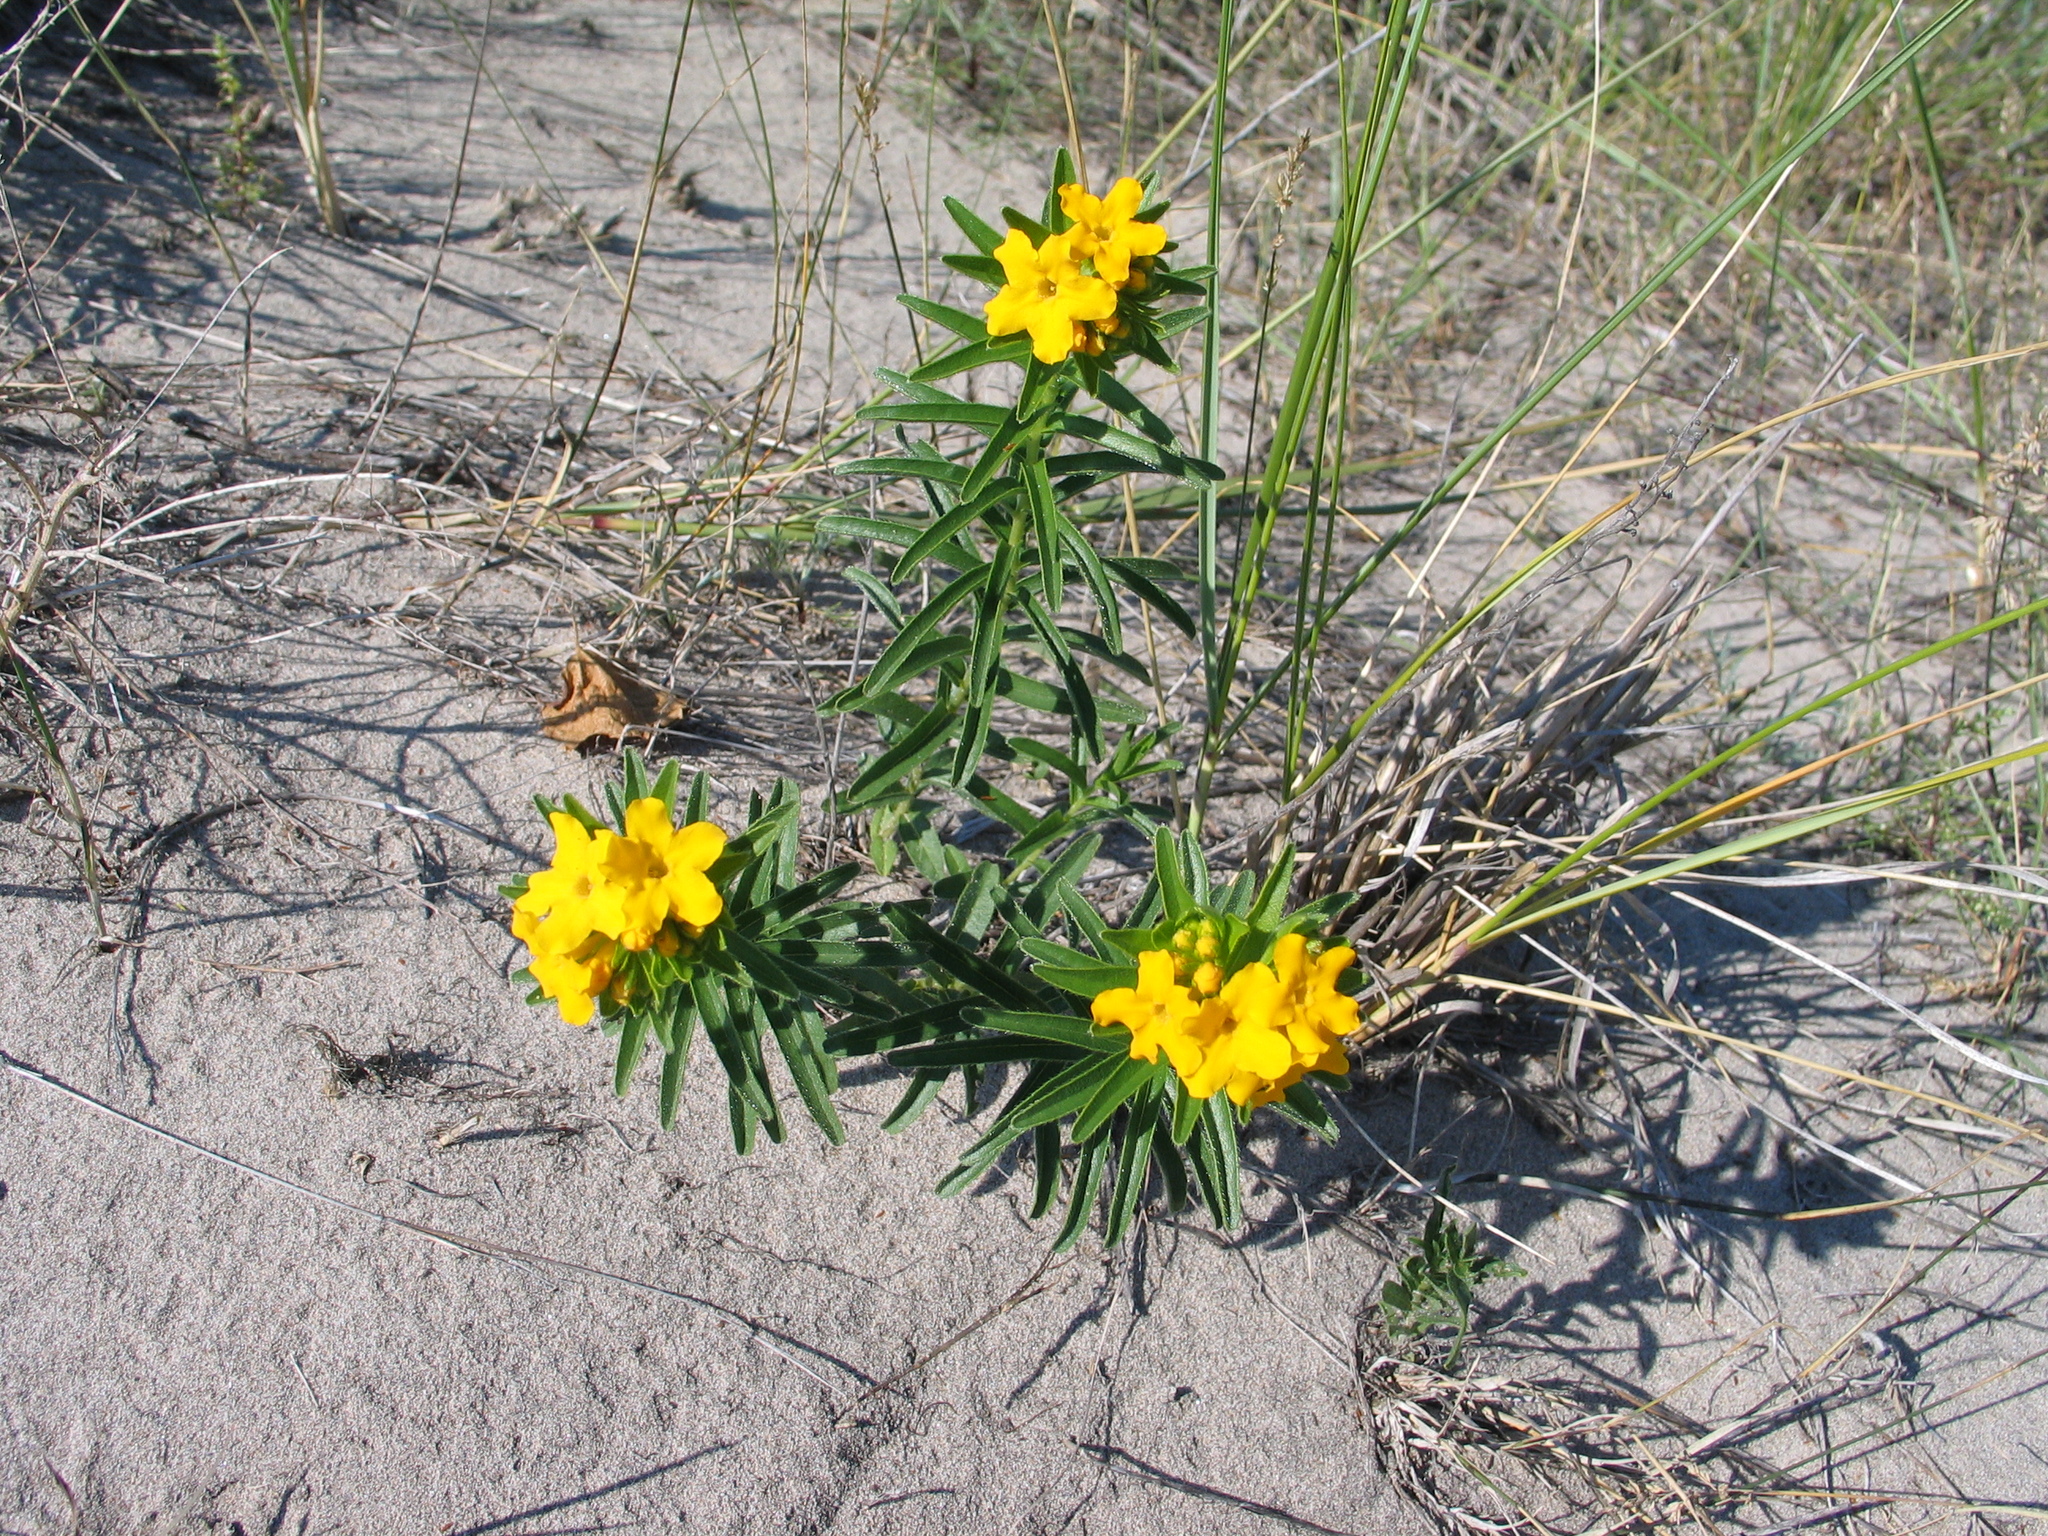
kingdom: Plantae
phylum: Tracheophyta
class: Magnoliopsida
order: Boraginales
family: Boraginaceae
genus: Lithospermum
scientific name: Lithospermum caroliniense
